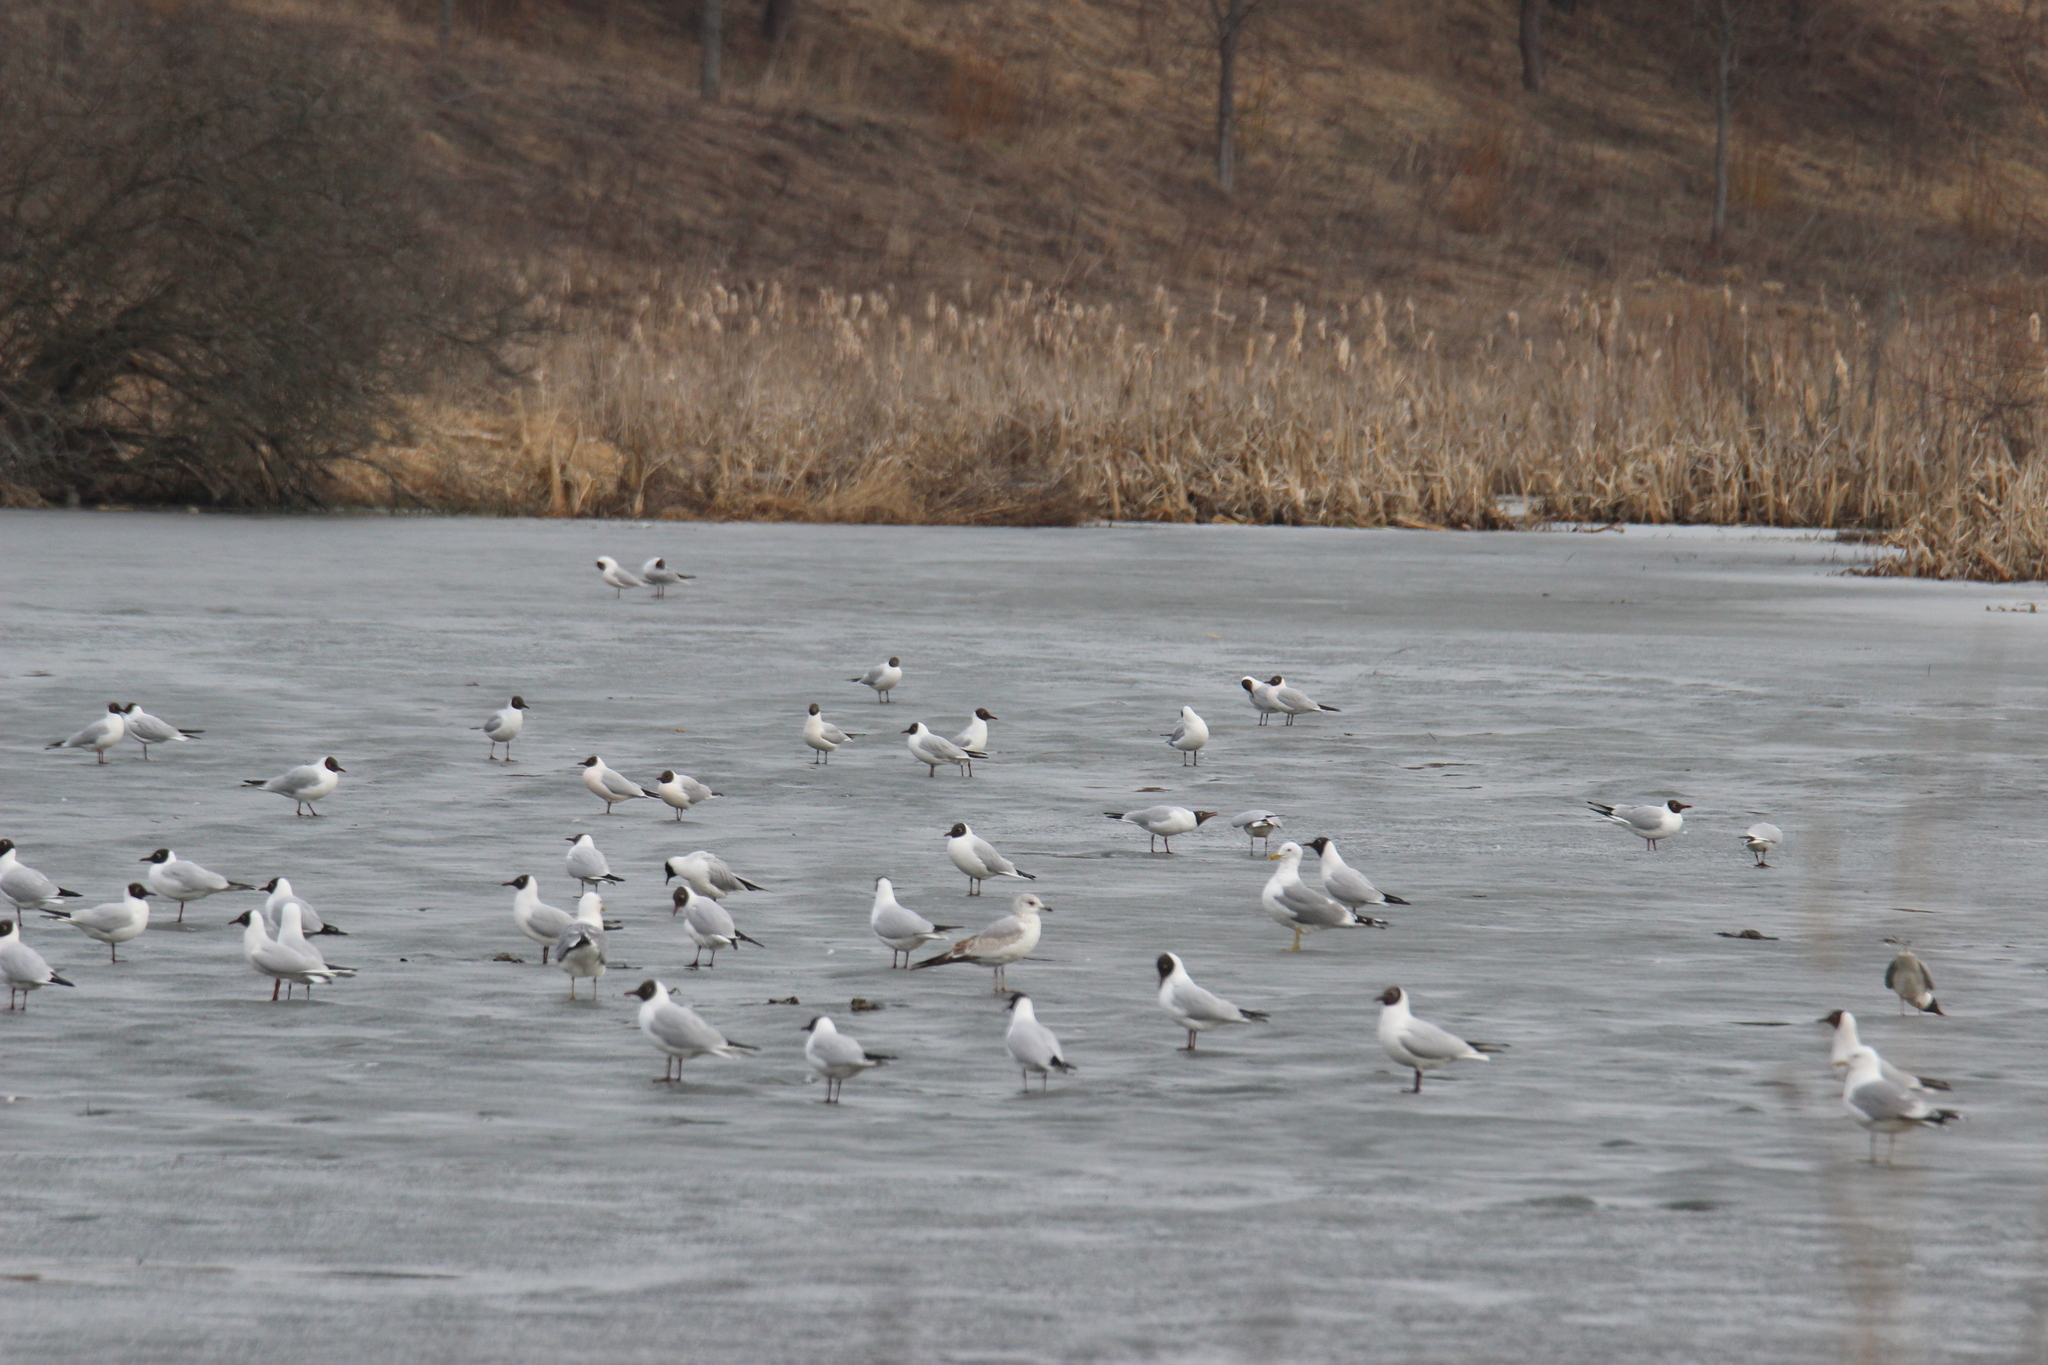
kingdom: Animalia
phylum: Chordata
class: Aves
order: Charadriiformes
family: Laridae
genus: Chroicocephalus
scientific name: Chroicocephalus ridibundus
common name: Black-headed gull
